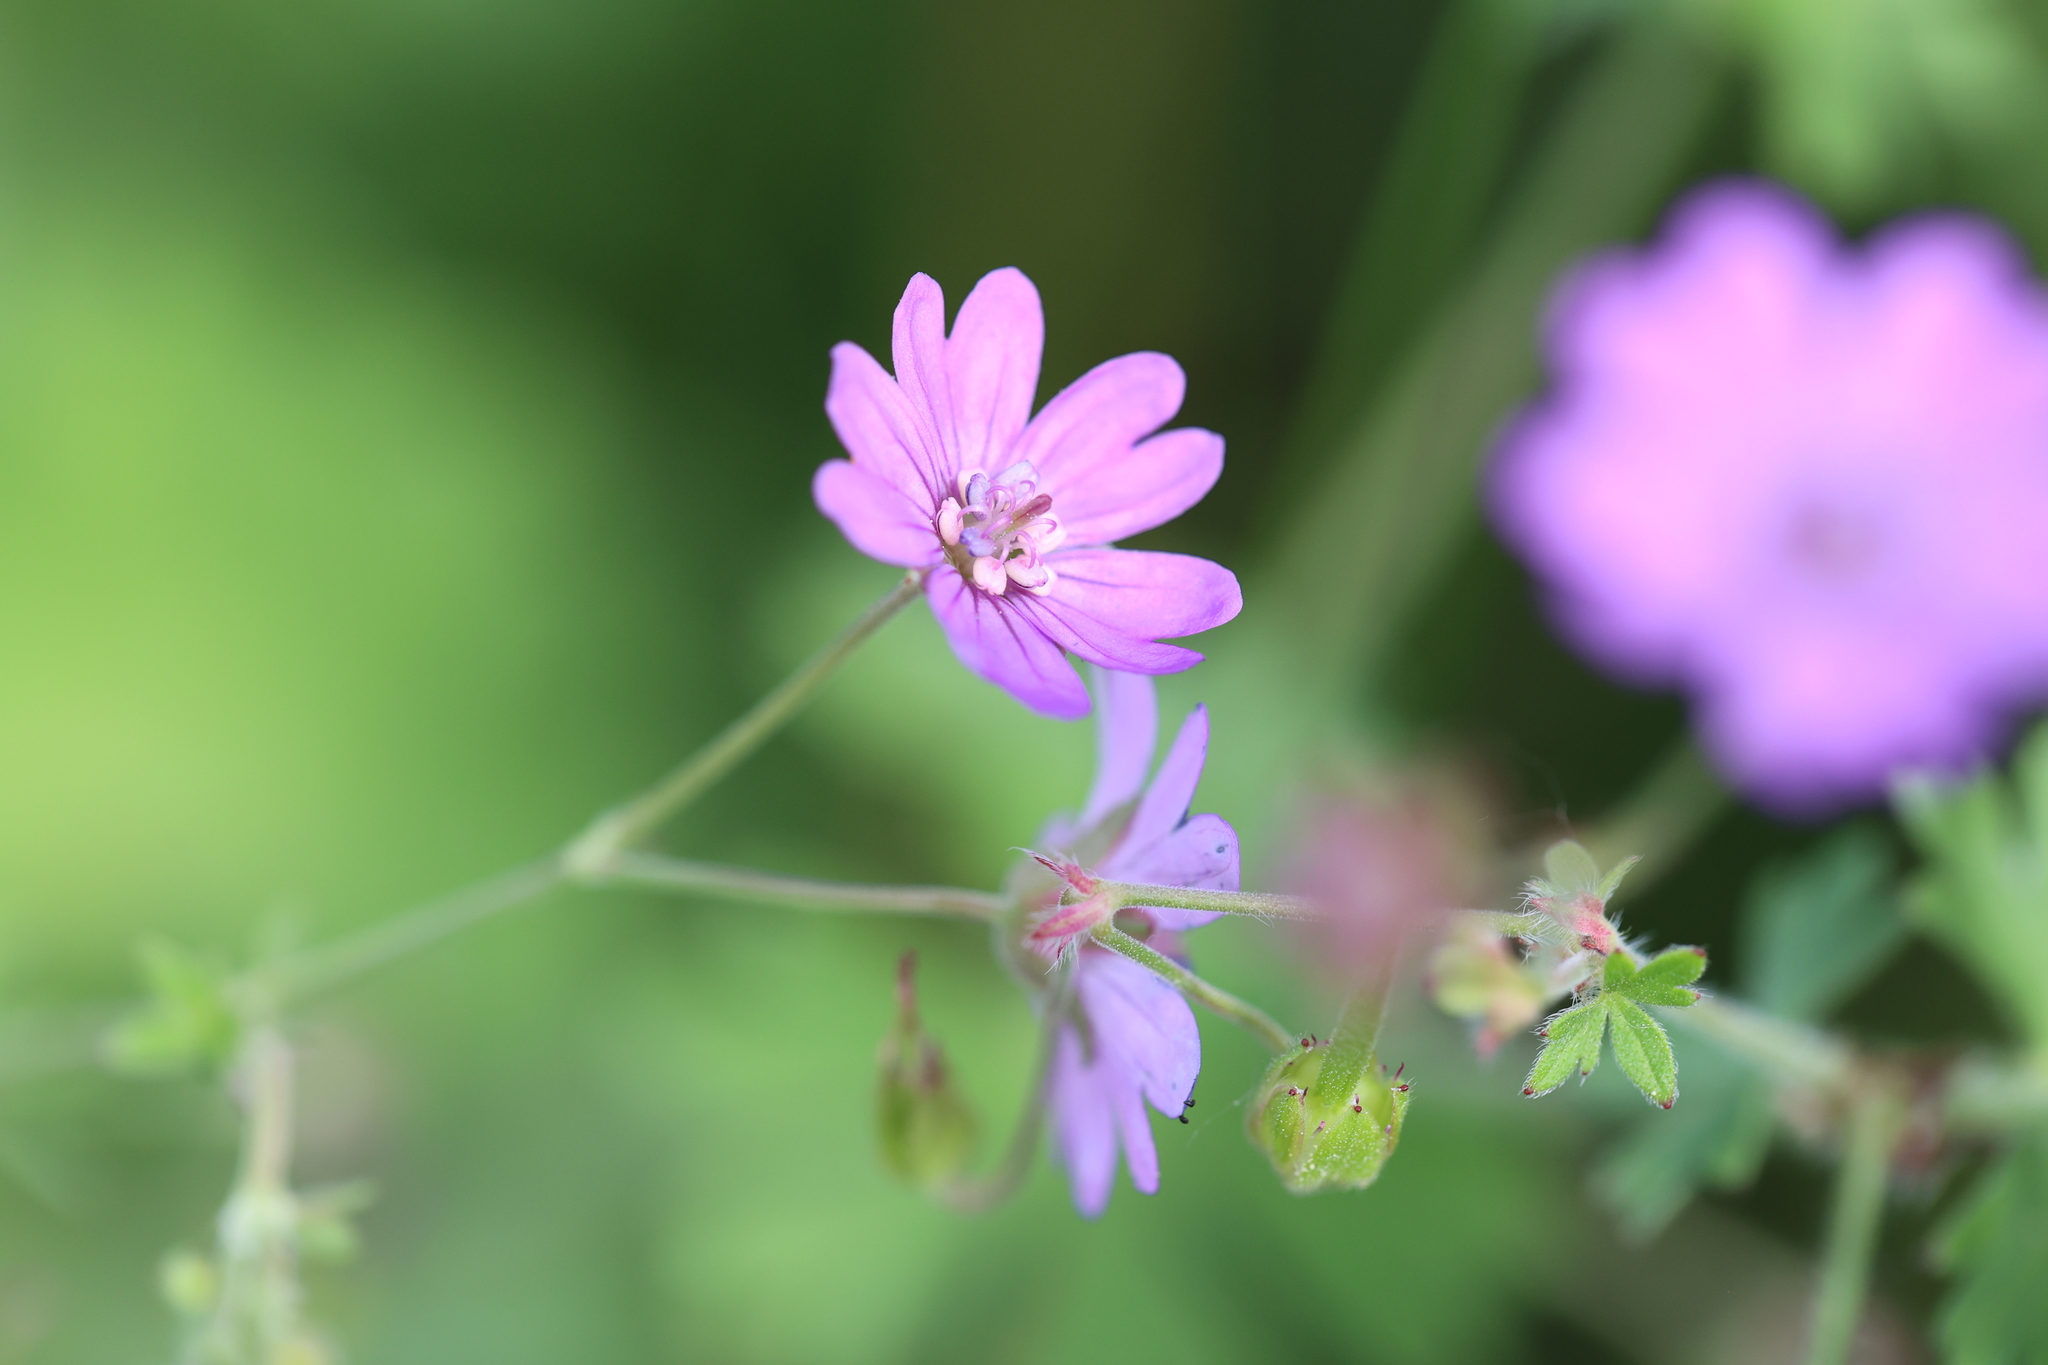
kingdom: Plantae
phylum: Tracheophyta
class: Magnoliopsida
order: Geraniales
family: Geraniaceae
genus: Geranium
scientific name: Geranium pyrenaicum
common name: Hedgerow crane's-bill
